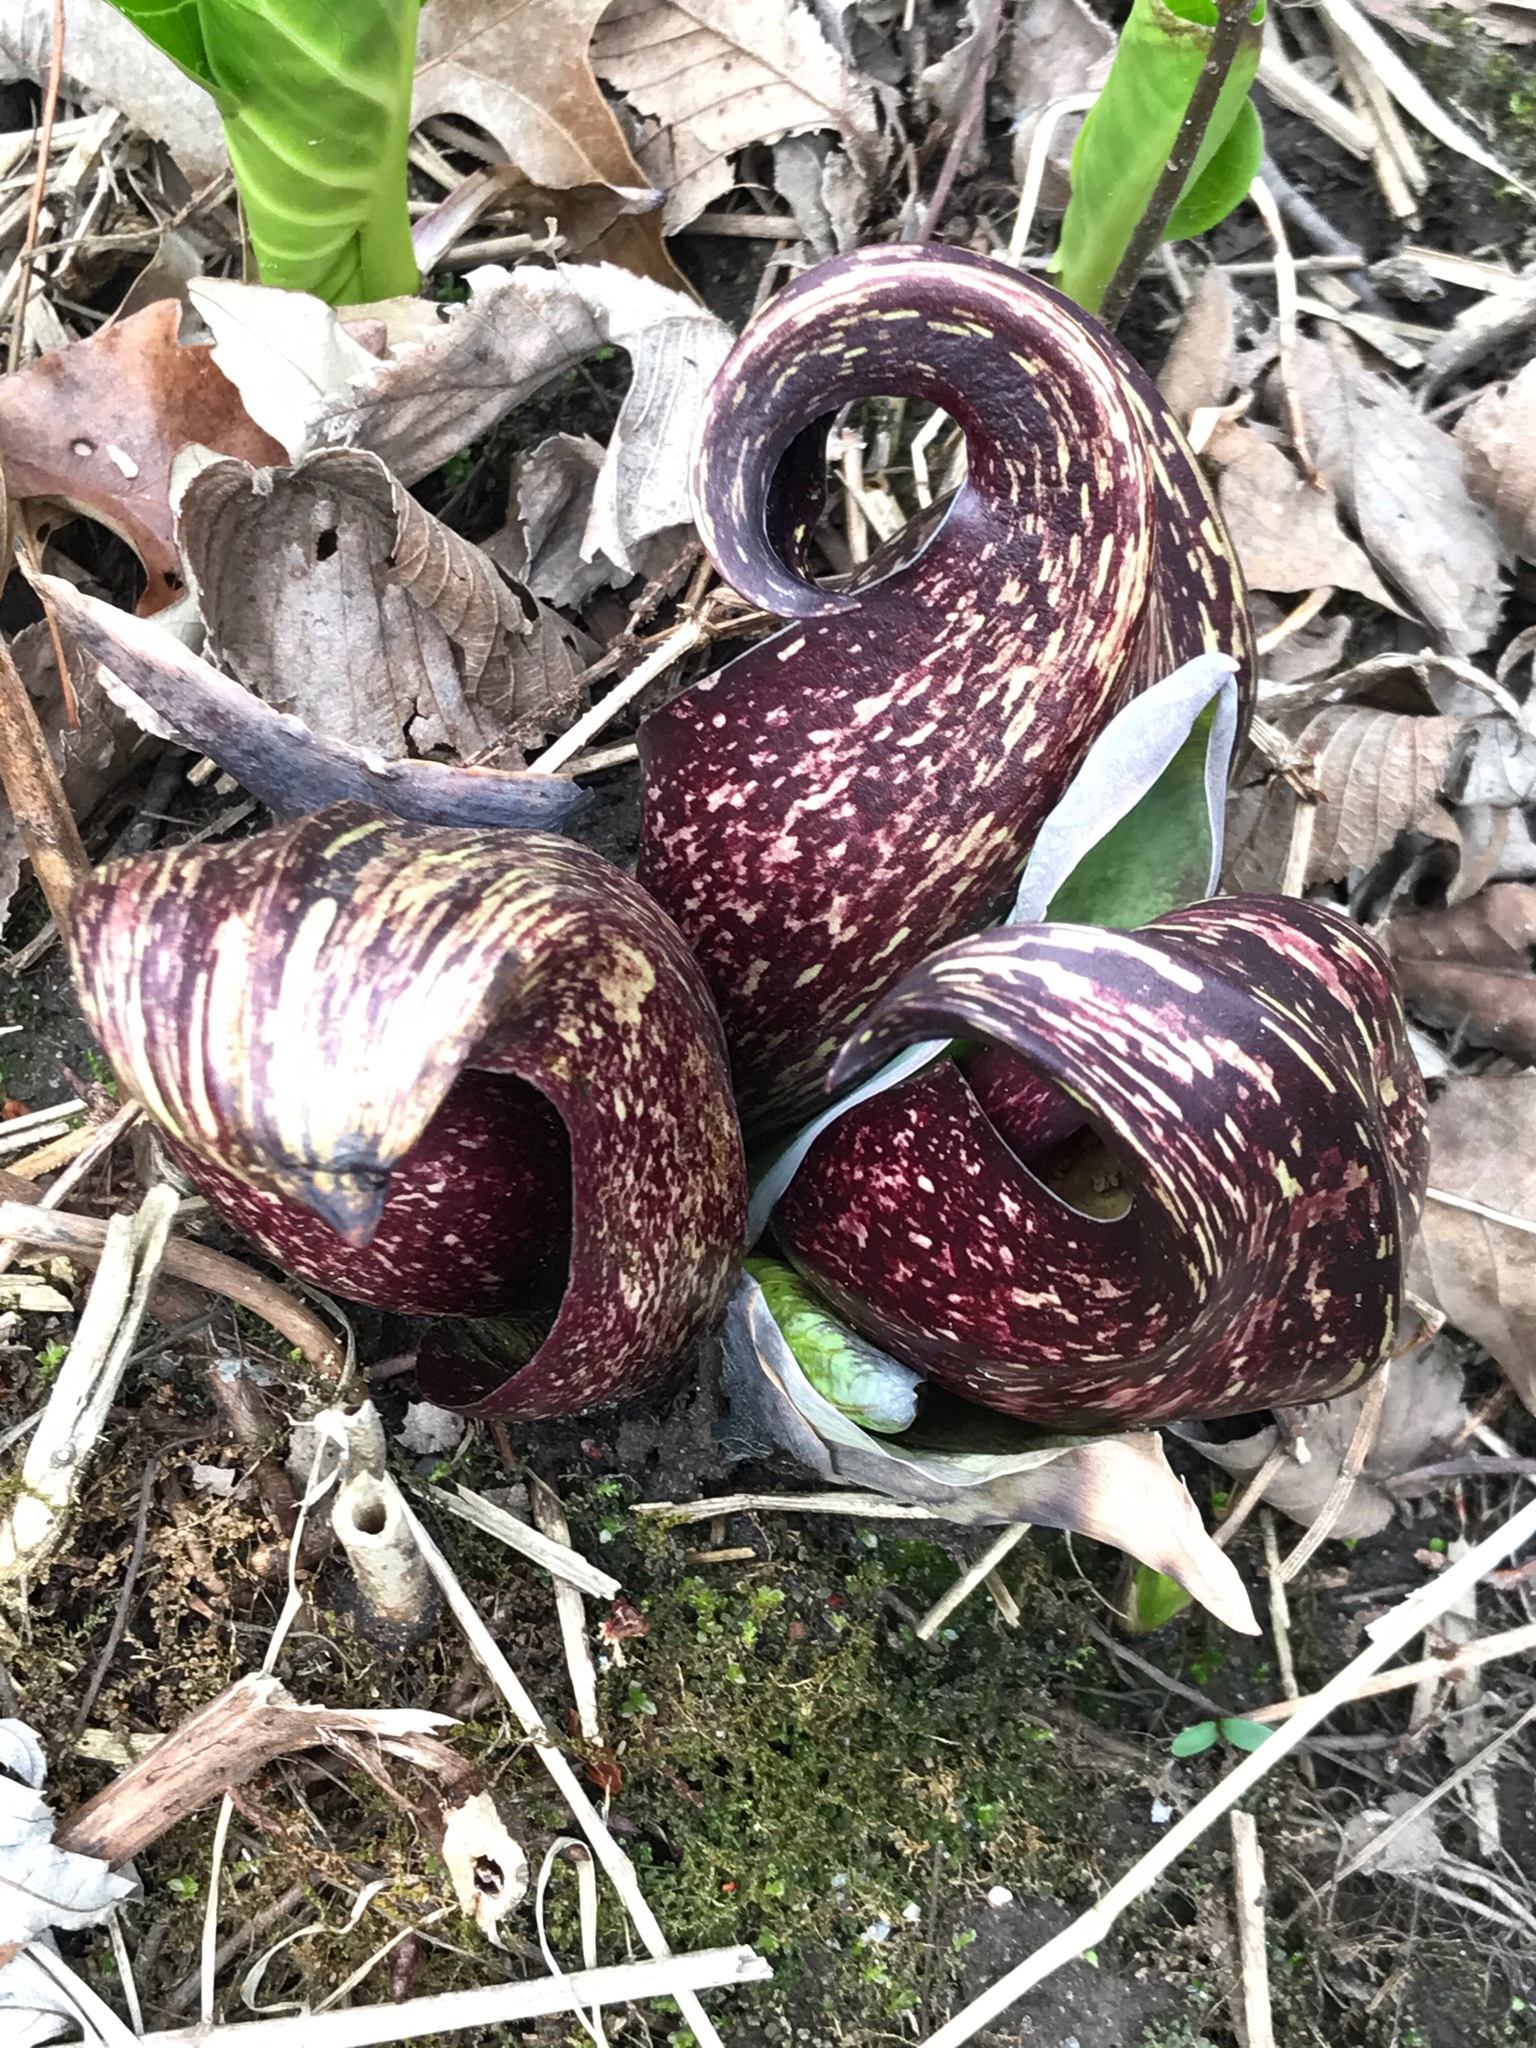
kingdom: Plantae
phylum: Tracheophyta
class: Liliopsida
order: Alismatales
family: Araceae
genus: Symplocarpus
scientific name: Symplocarpus foetidus
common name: Eastern skunk cabbage
